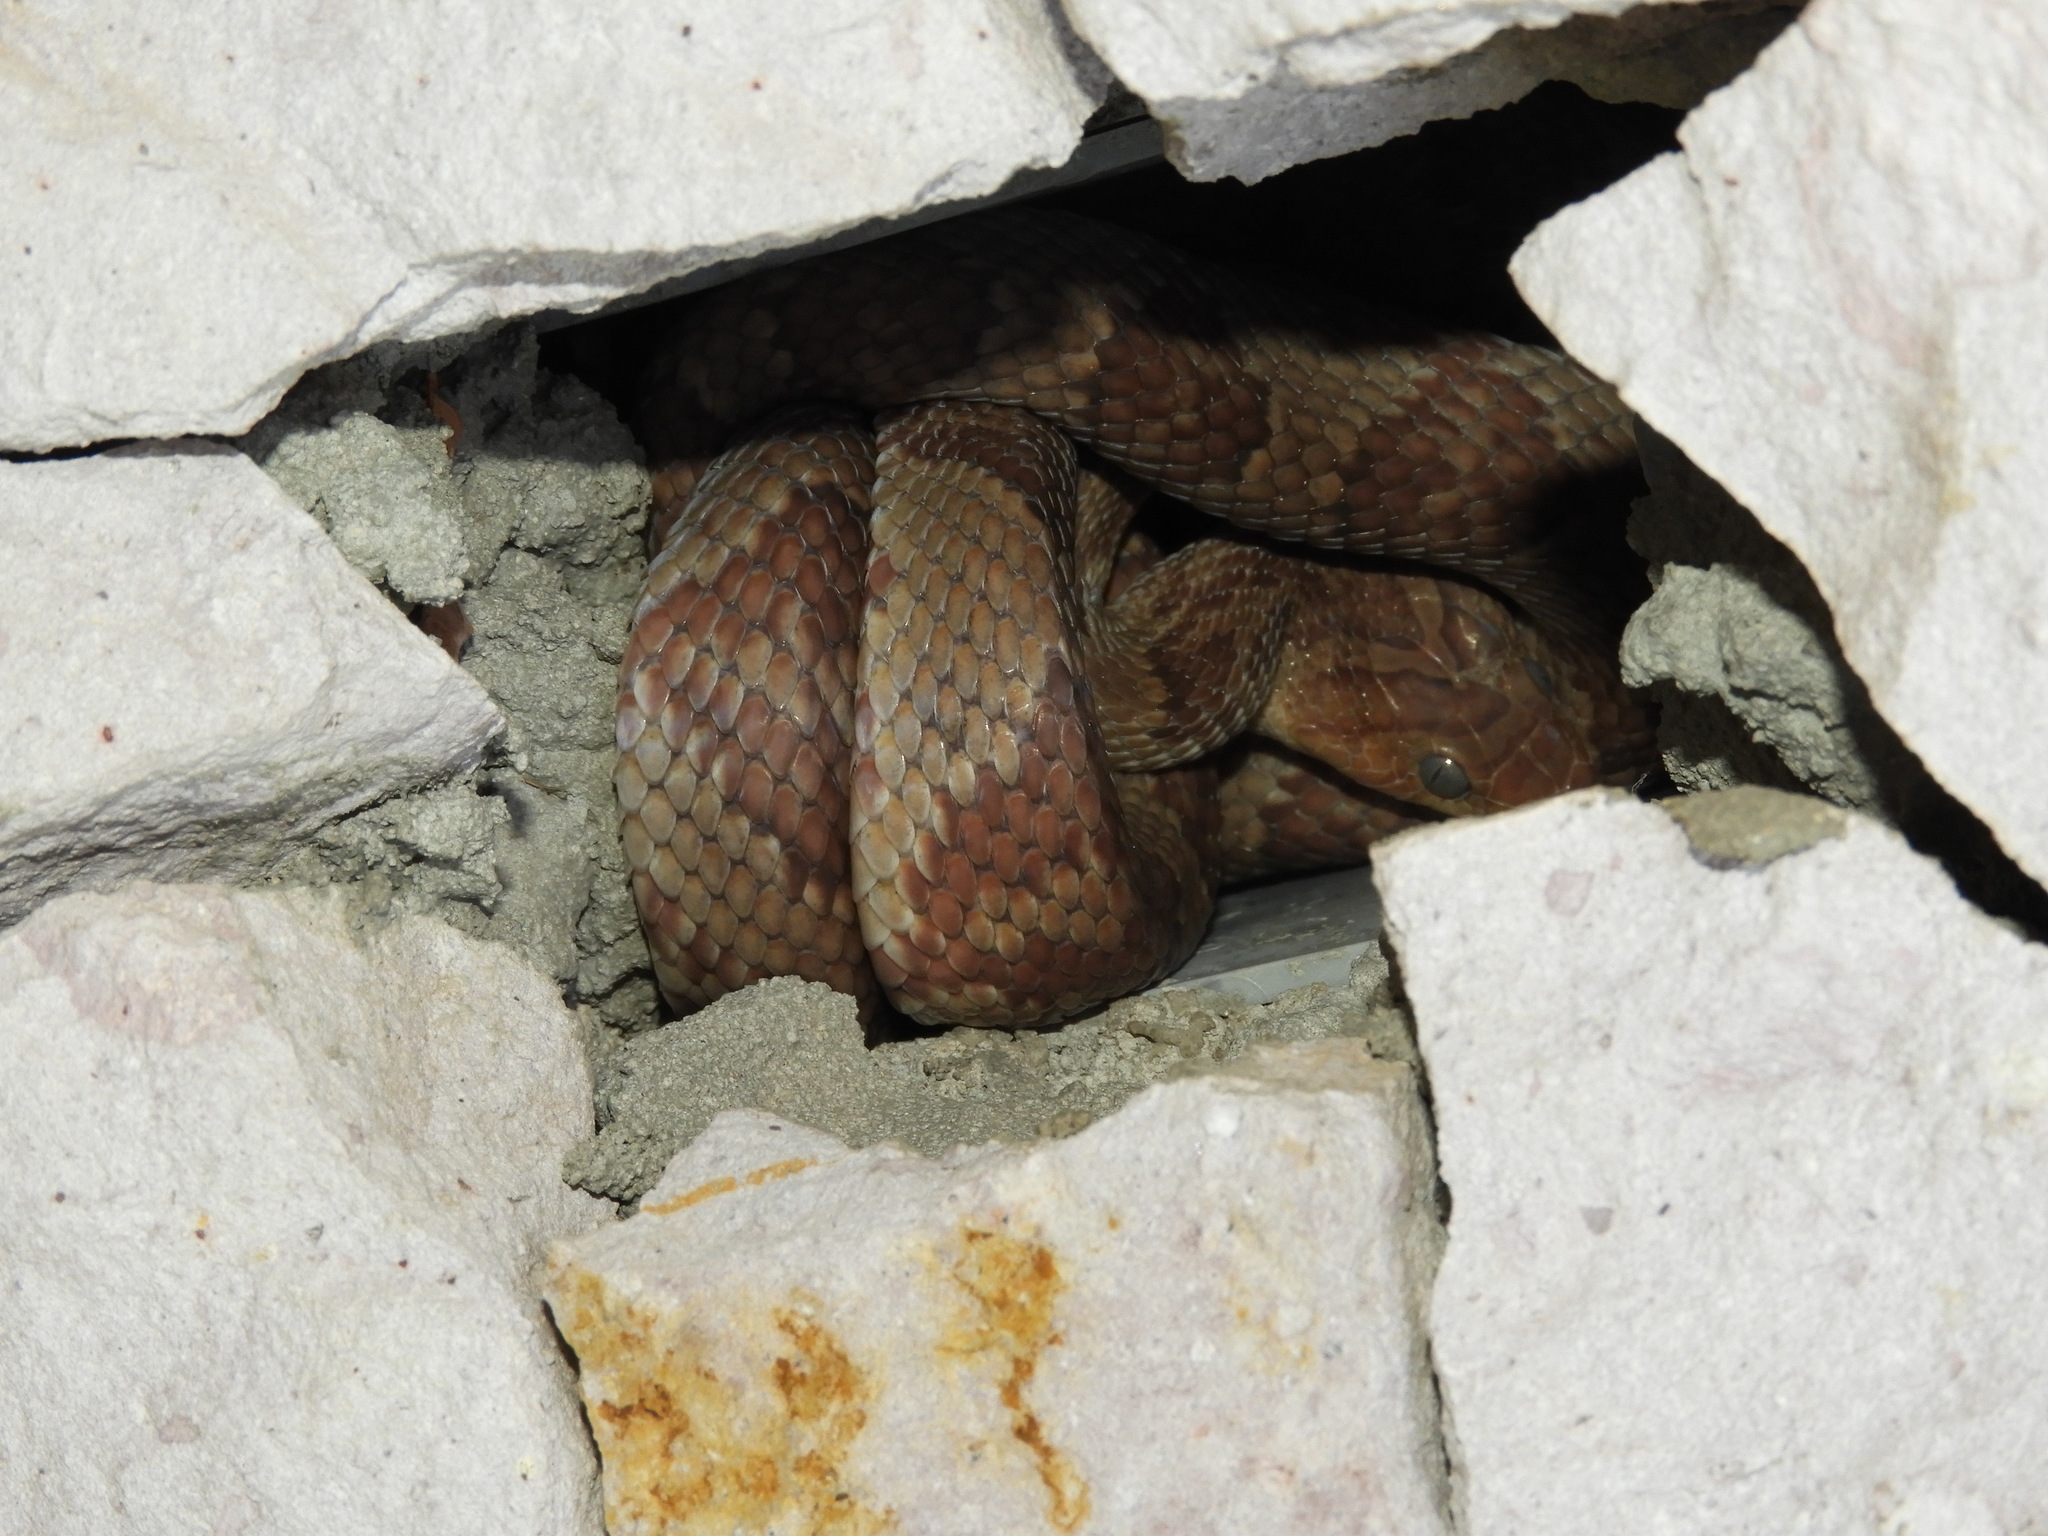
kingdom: Animalia
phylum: Chordata
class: Squamata
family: Colubridae
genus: Trimorphodon
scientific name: Trimorphodon paucimaculatus
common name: Sinaloan lyresnake
